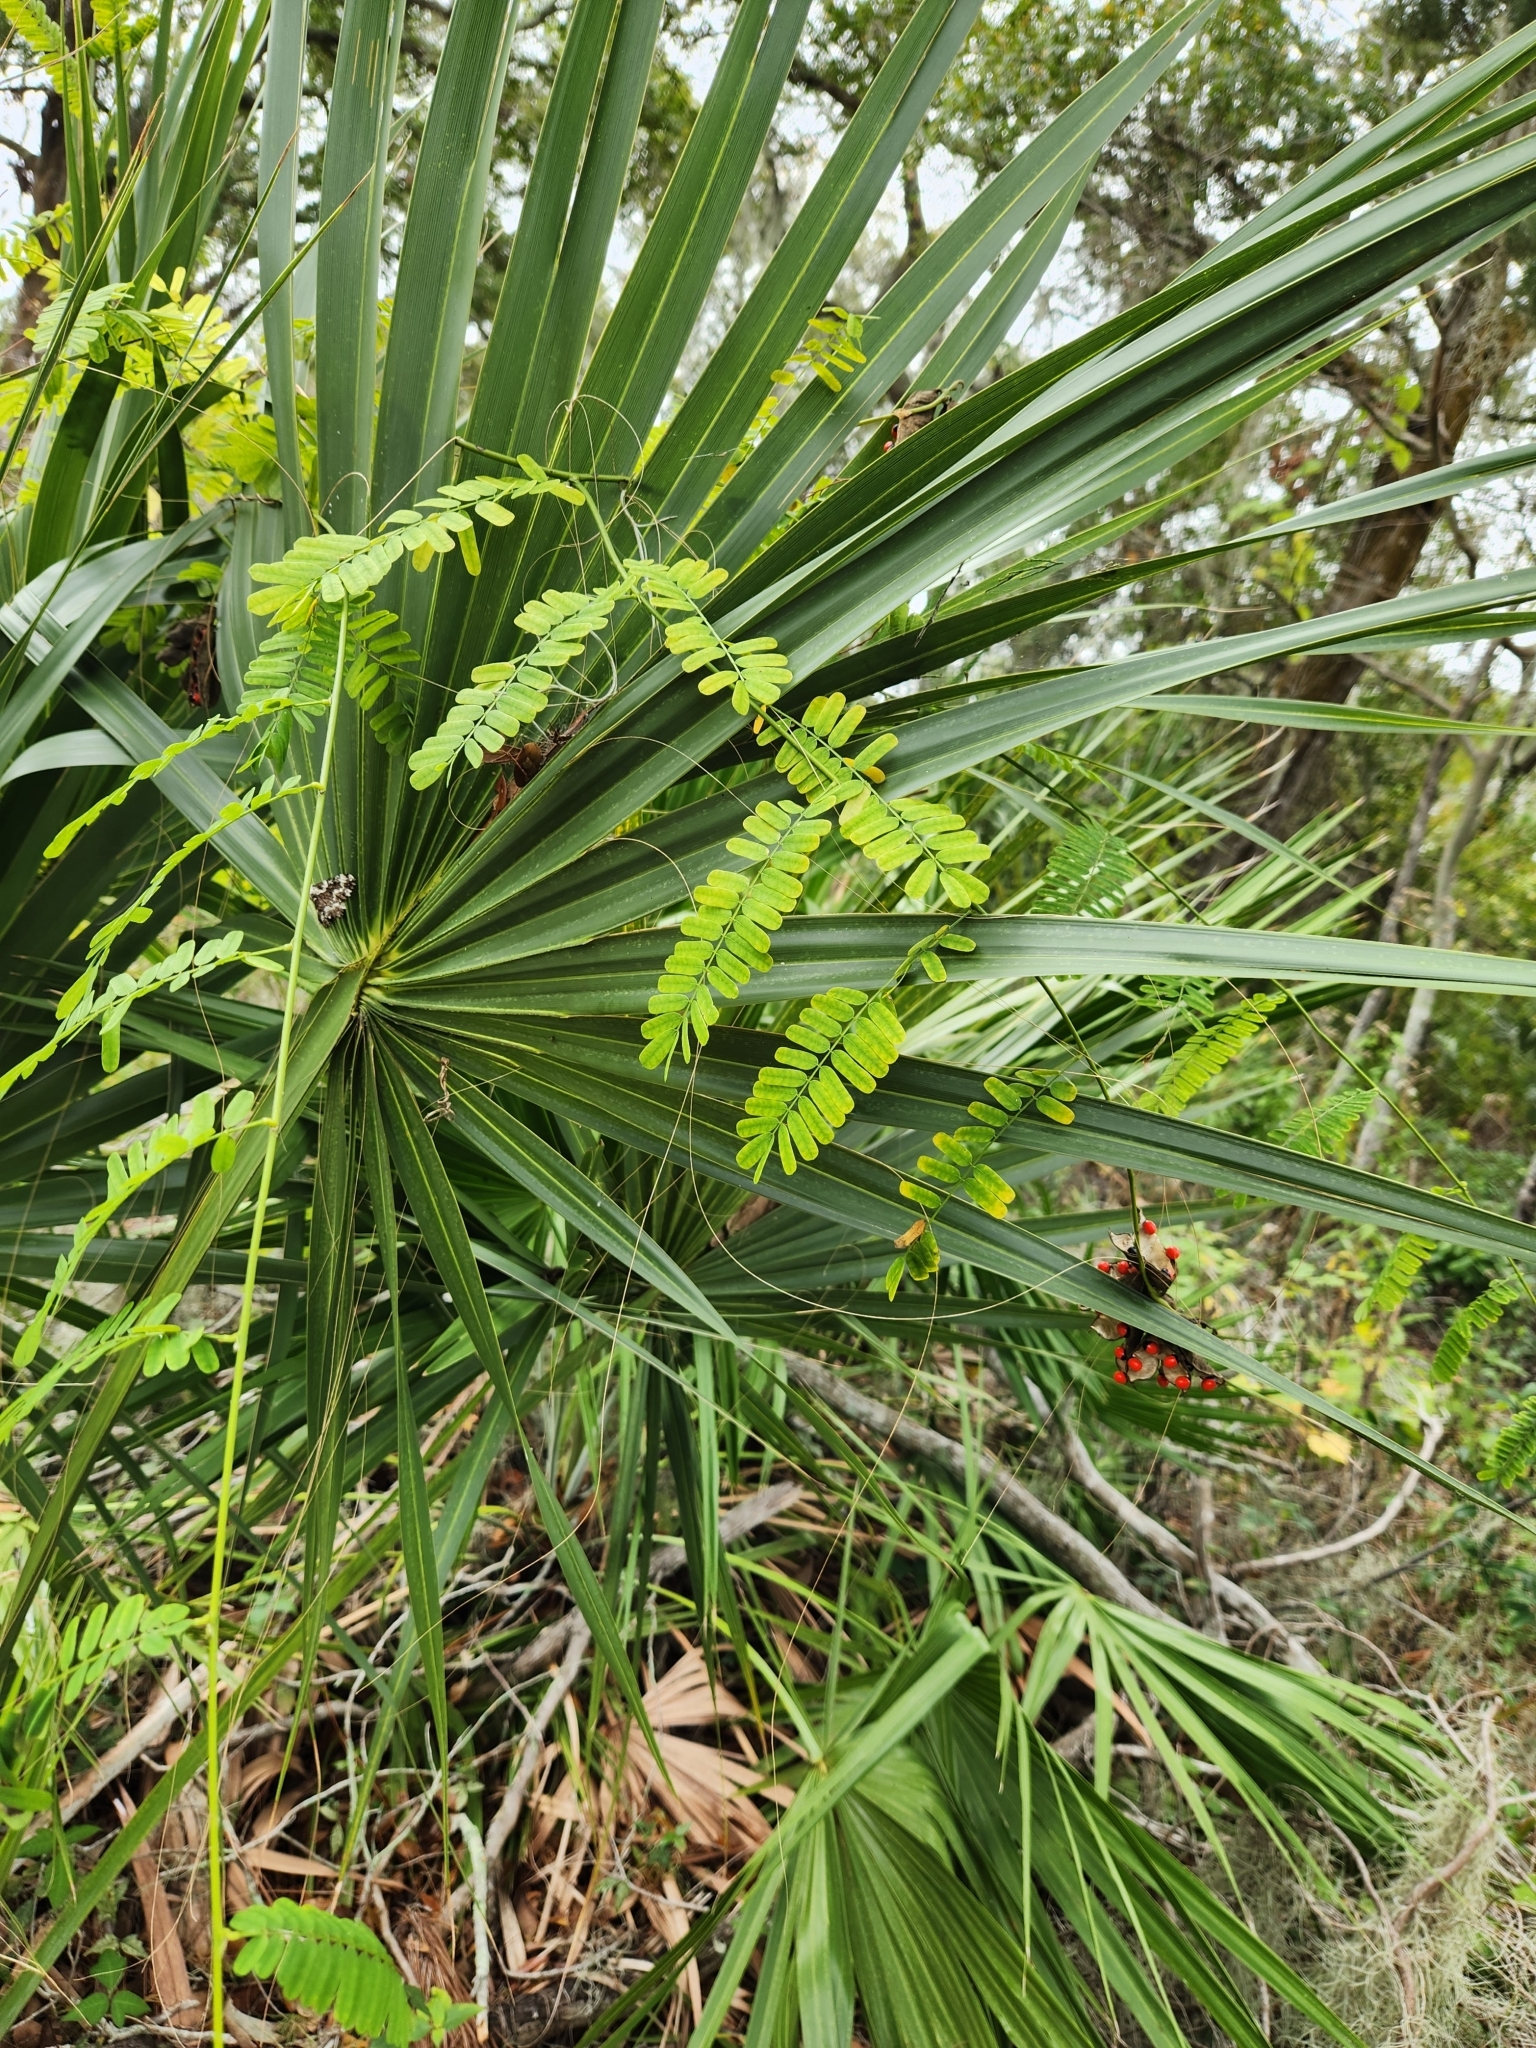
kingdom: Plantae
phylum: Tracheophyta
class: Magnoliopsida
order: Fabales
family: Fabaceae
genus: Abrus
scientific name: Abrus precatorius
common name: Rosarypea
